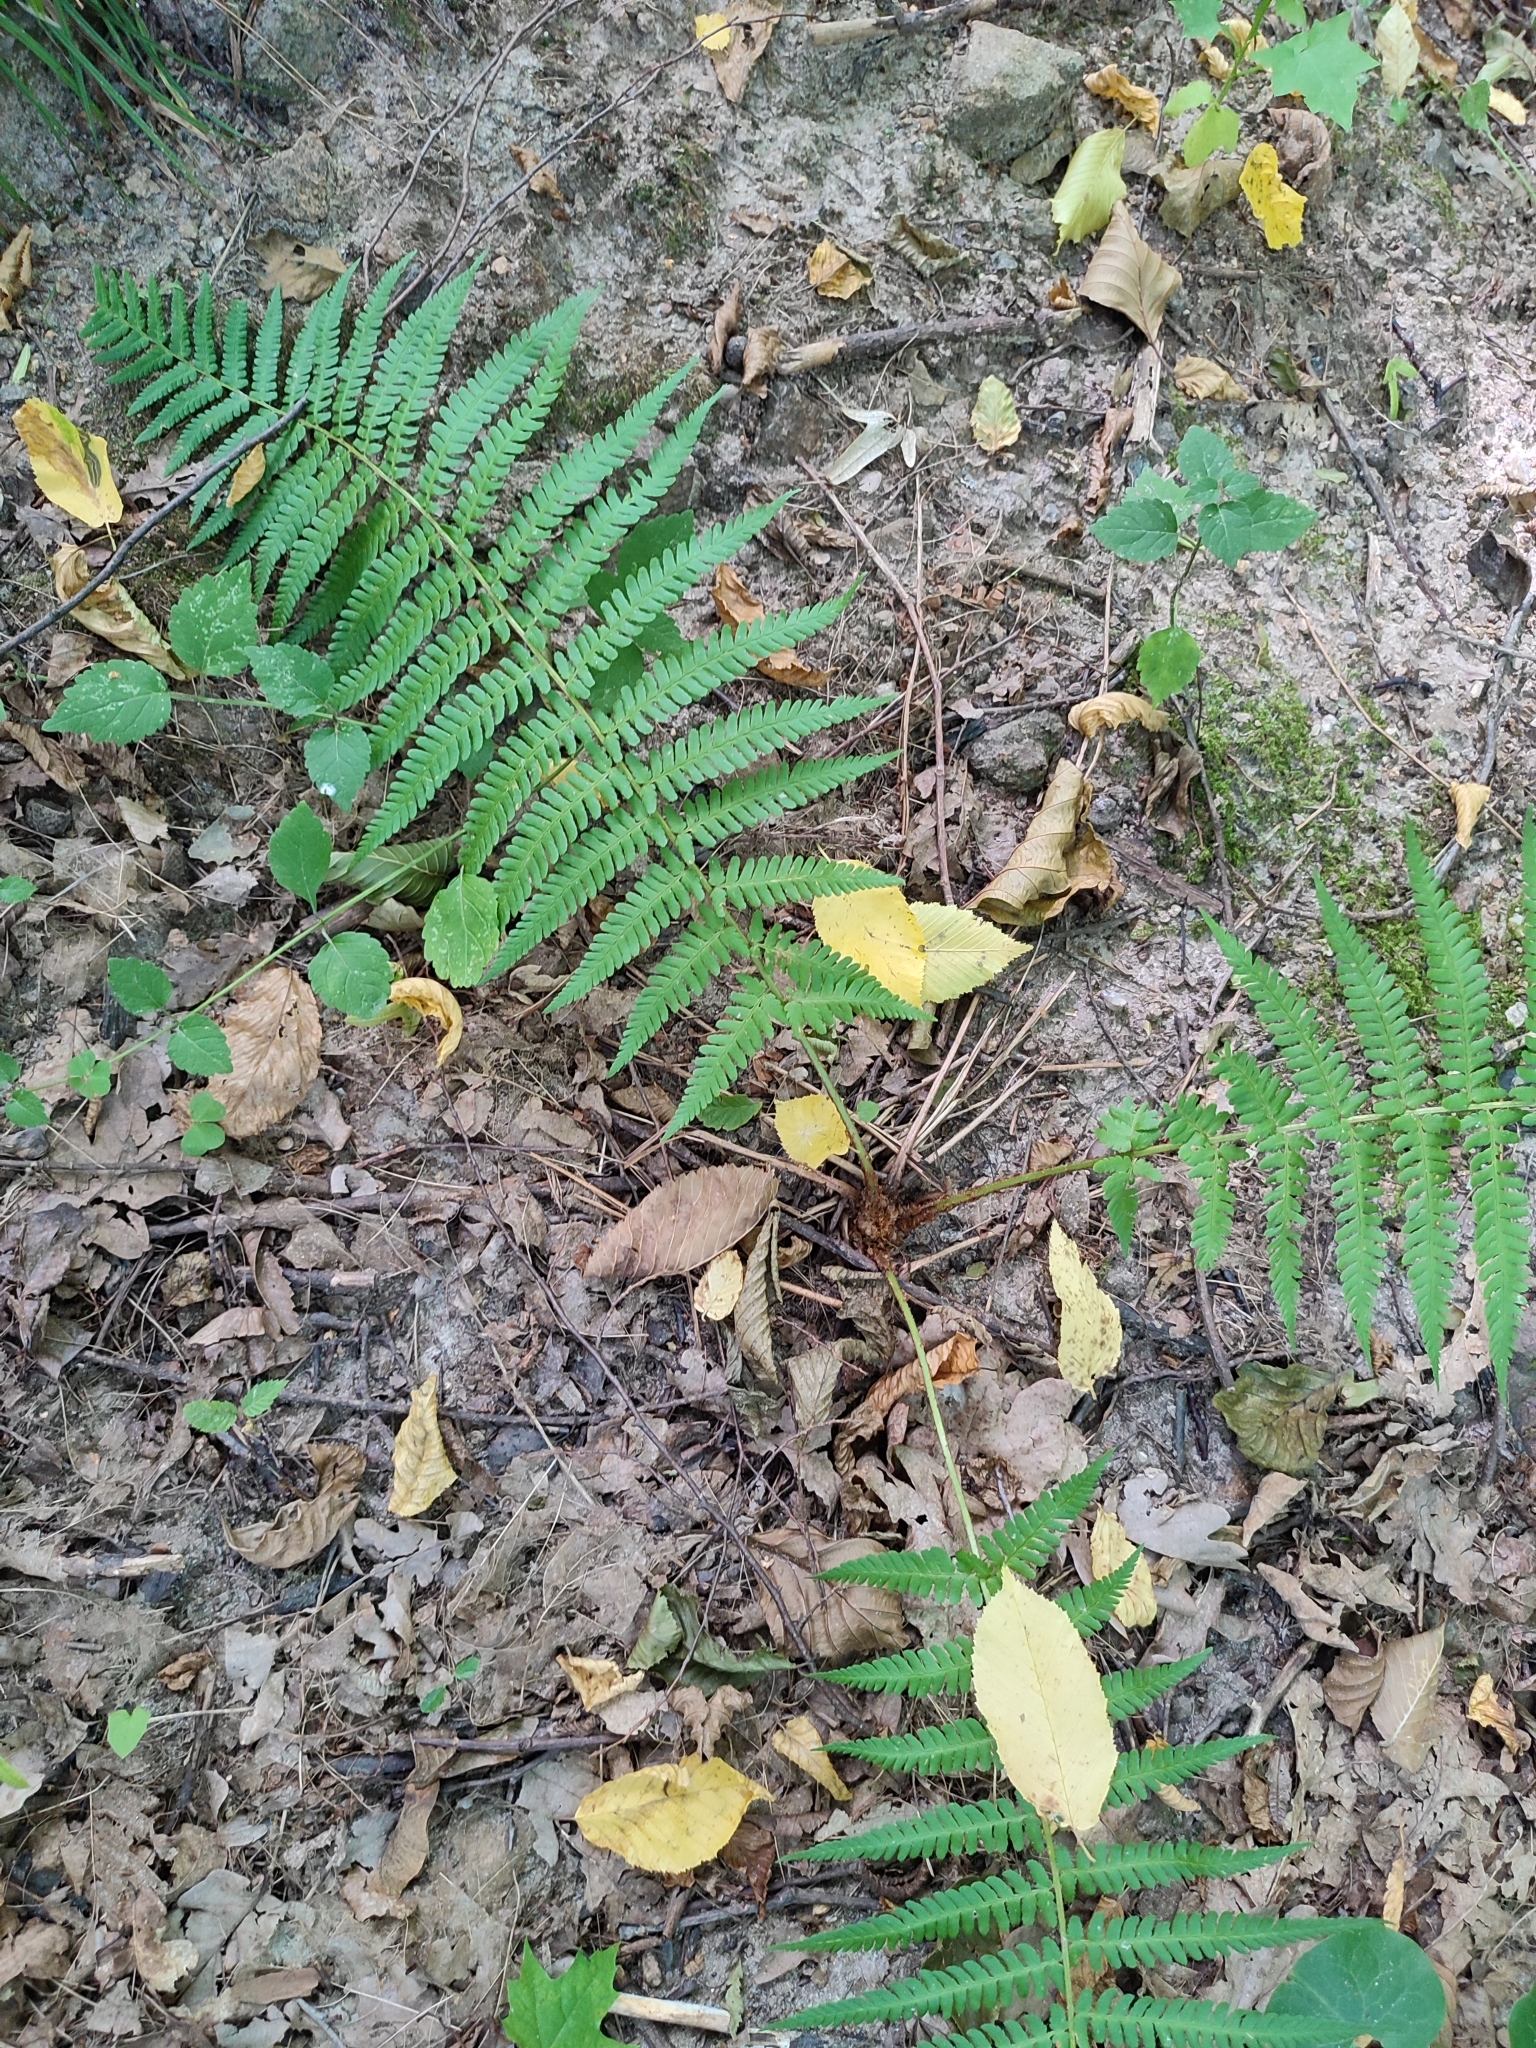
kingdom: Plantae
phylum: Tracheophyta
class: Polypodiopsida
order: Polypodiales
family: Dryopteridaceae
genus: Dryopteris
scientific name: Dryopteris filix-mas
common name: Male fern
